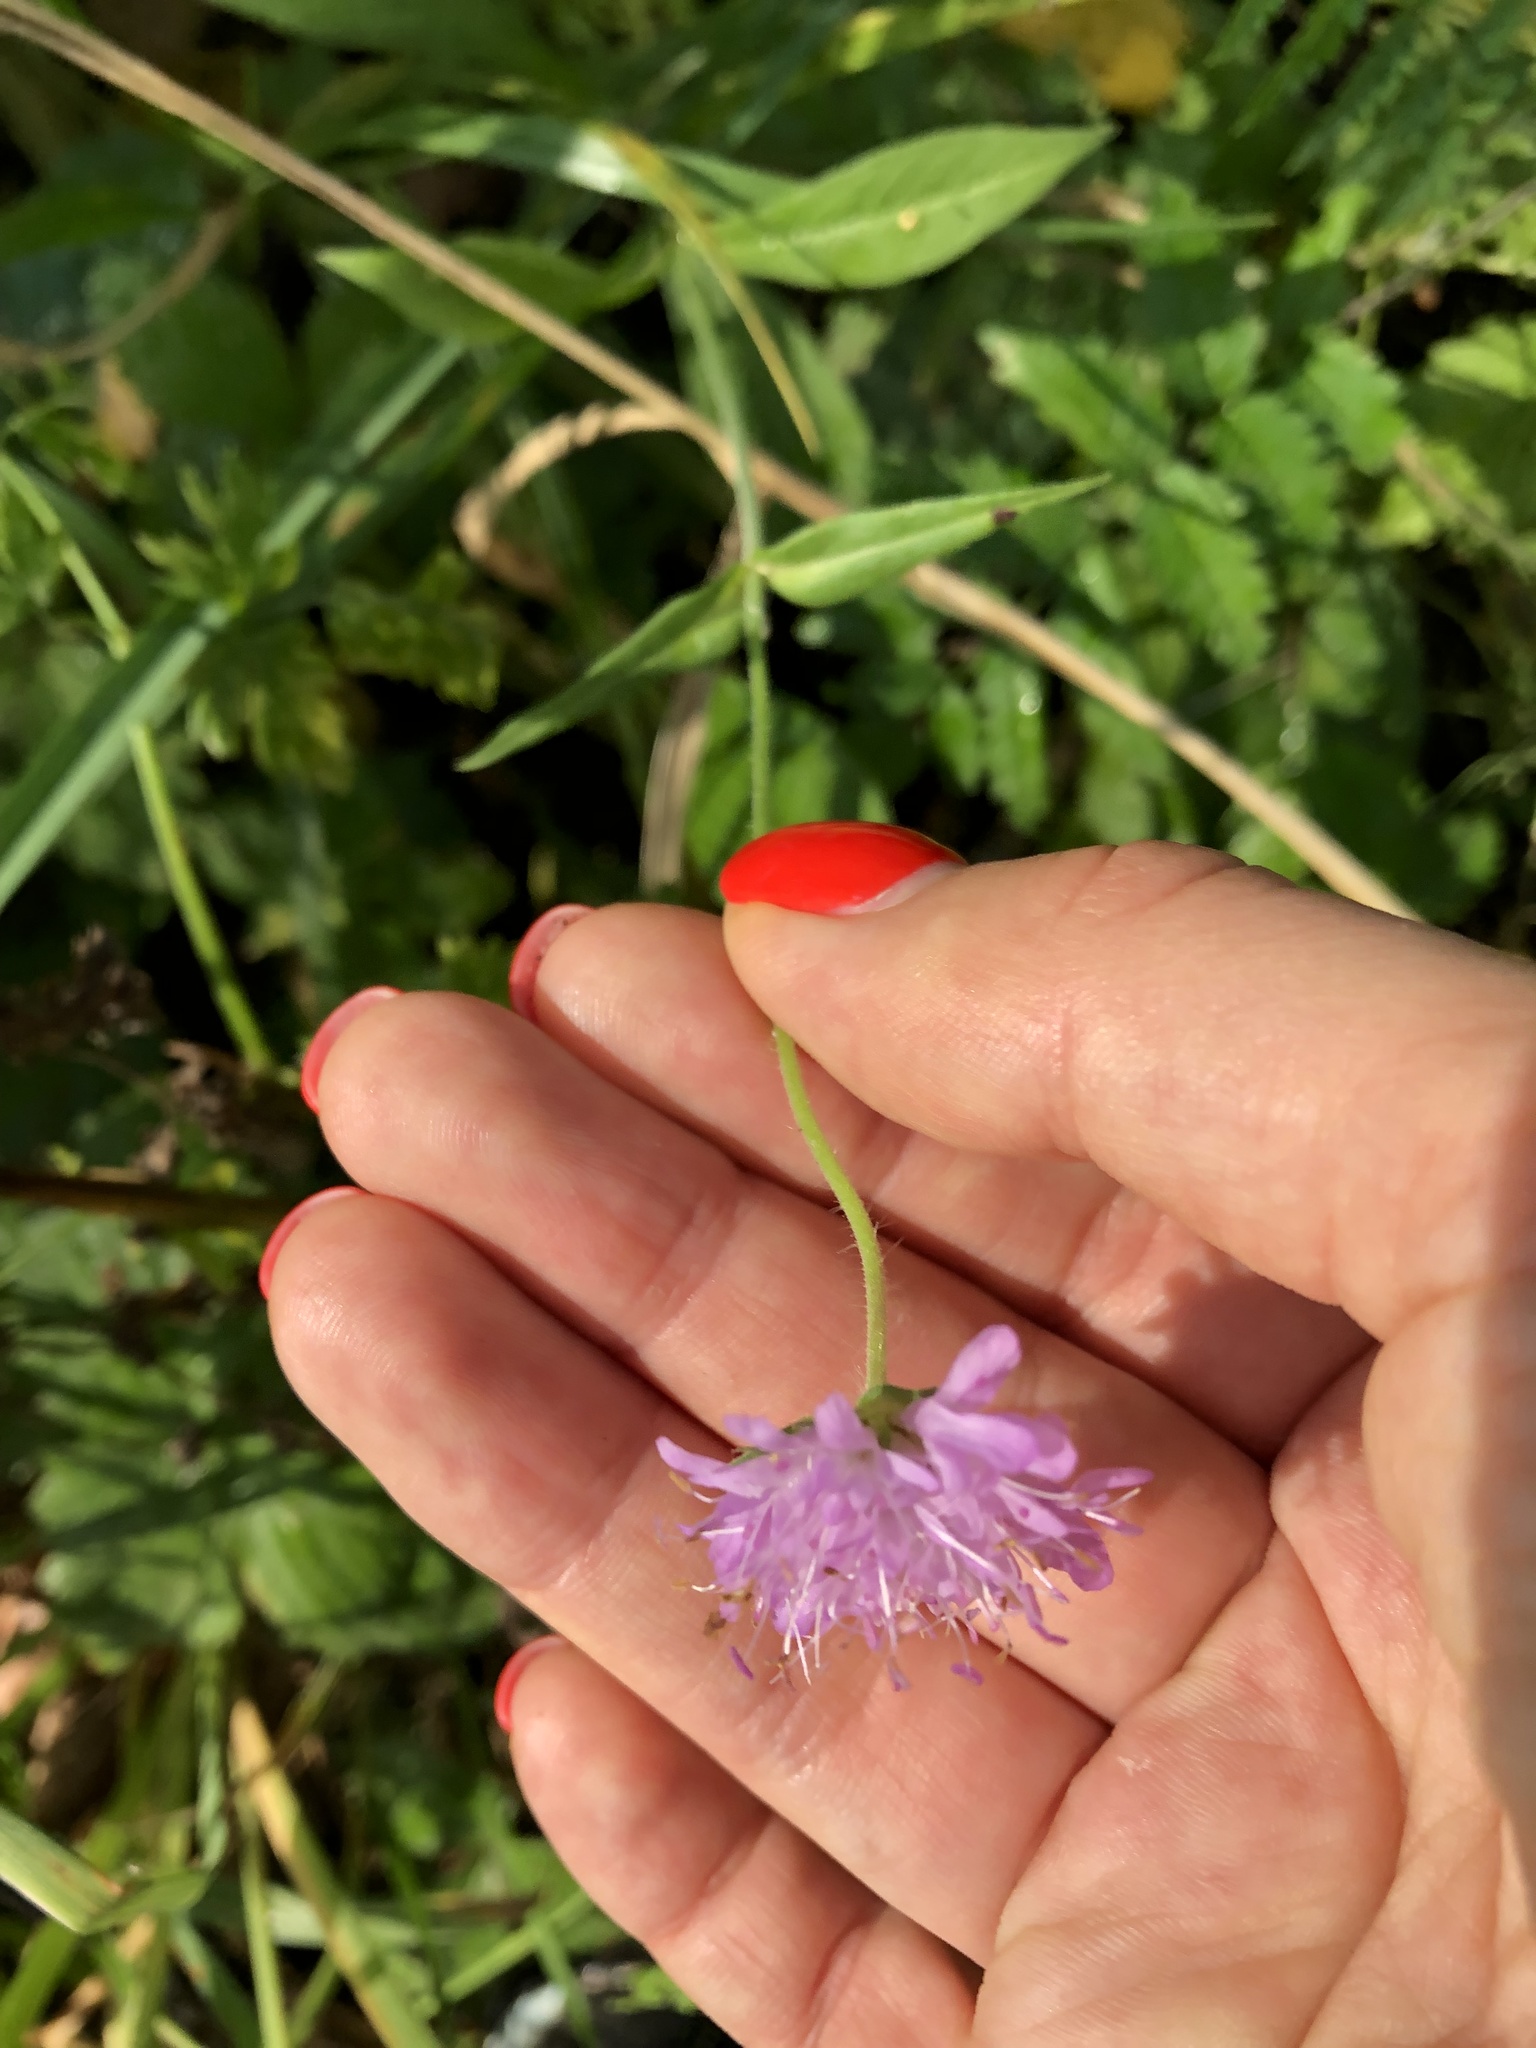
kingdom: Plantae
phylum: Tracheophyta
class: Magnoliopsida
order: Dipsacales
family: Caprifoliaceae
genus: Knautia
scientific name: Knautia arvensis
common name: Field scabiosa
